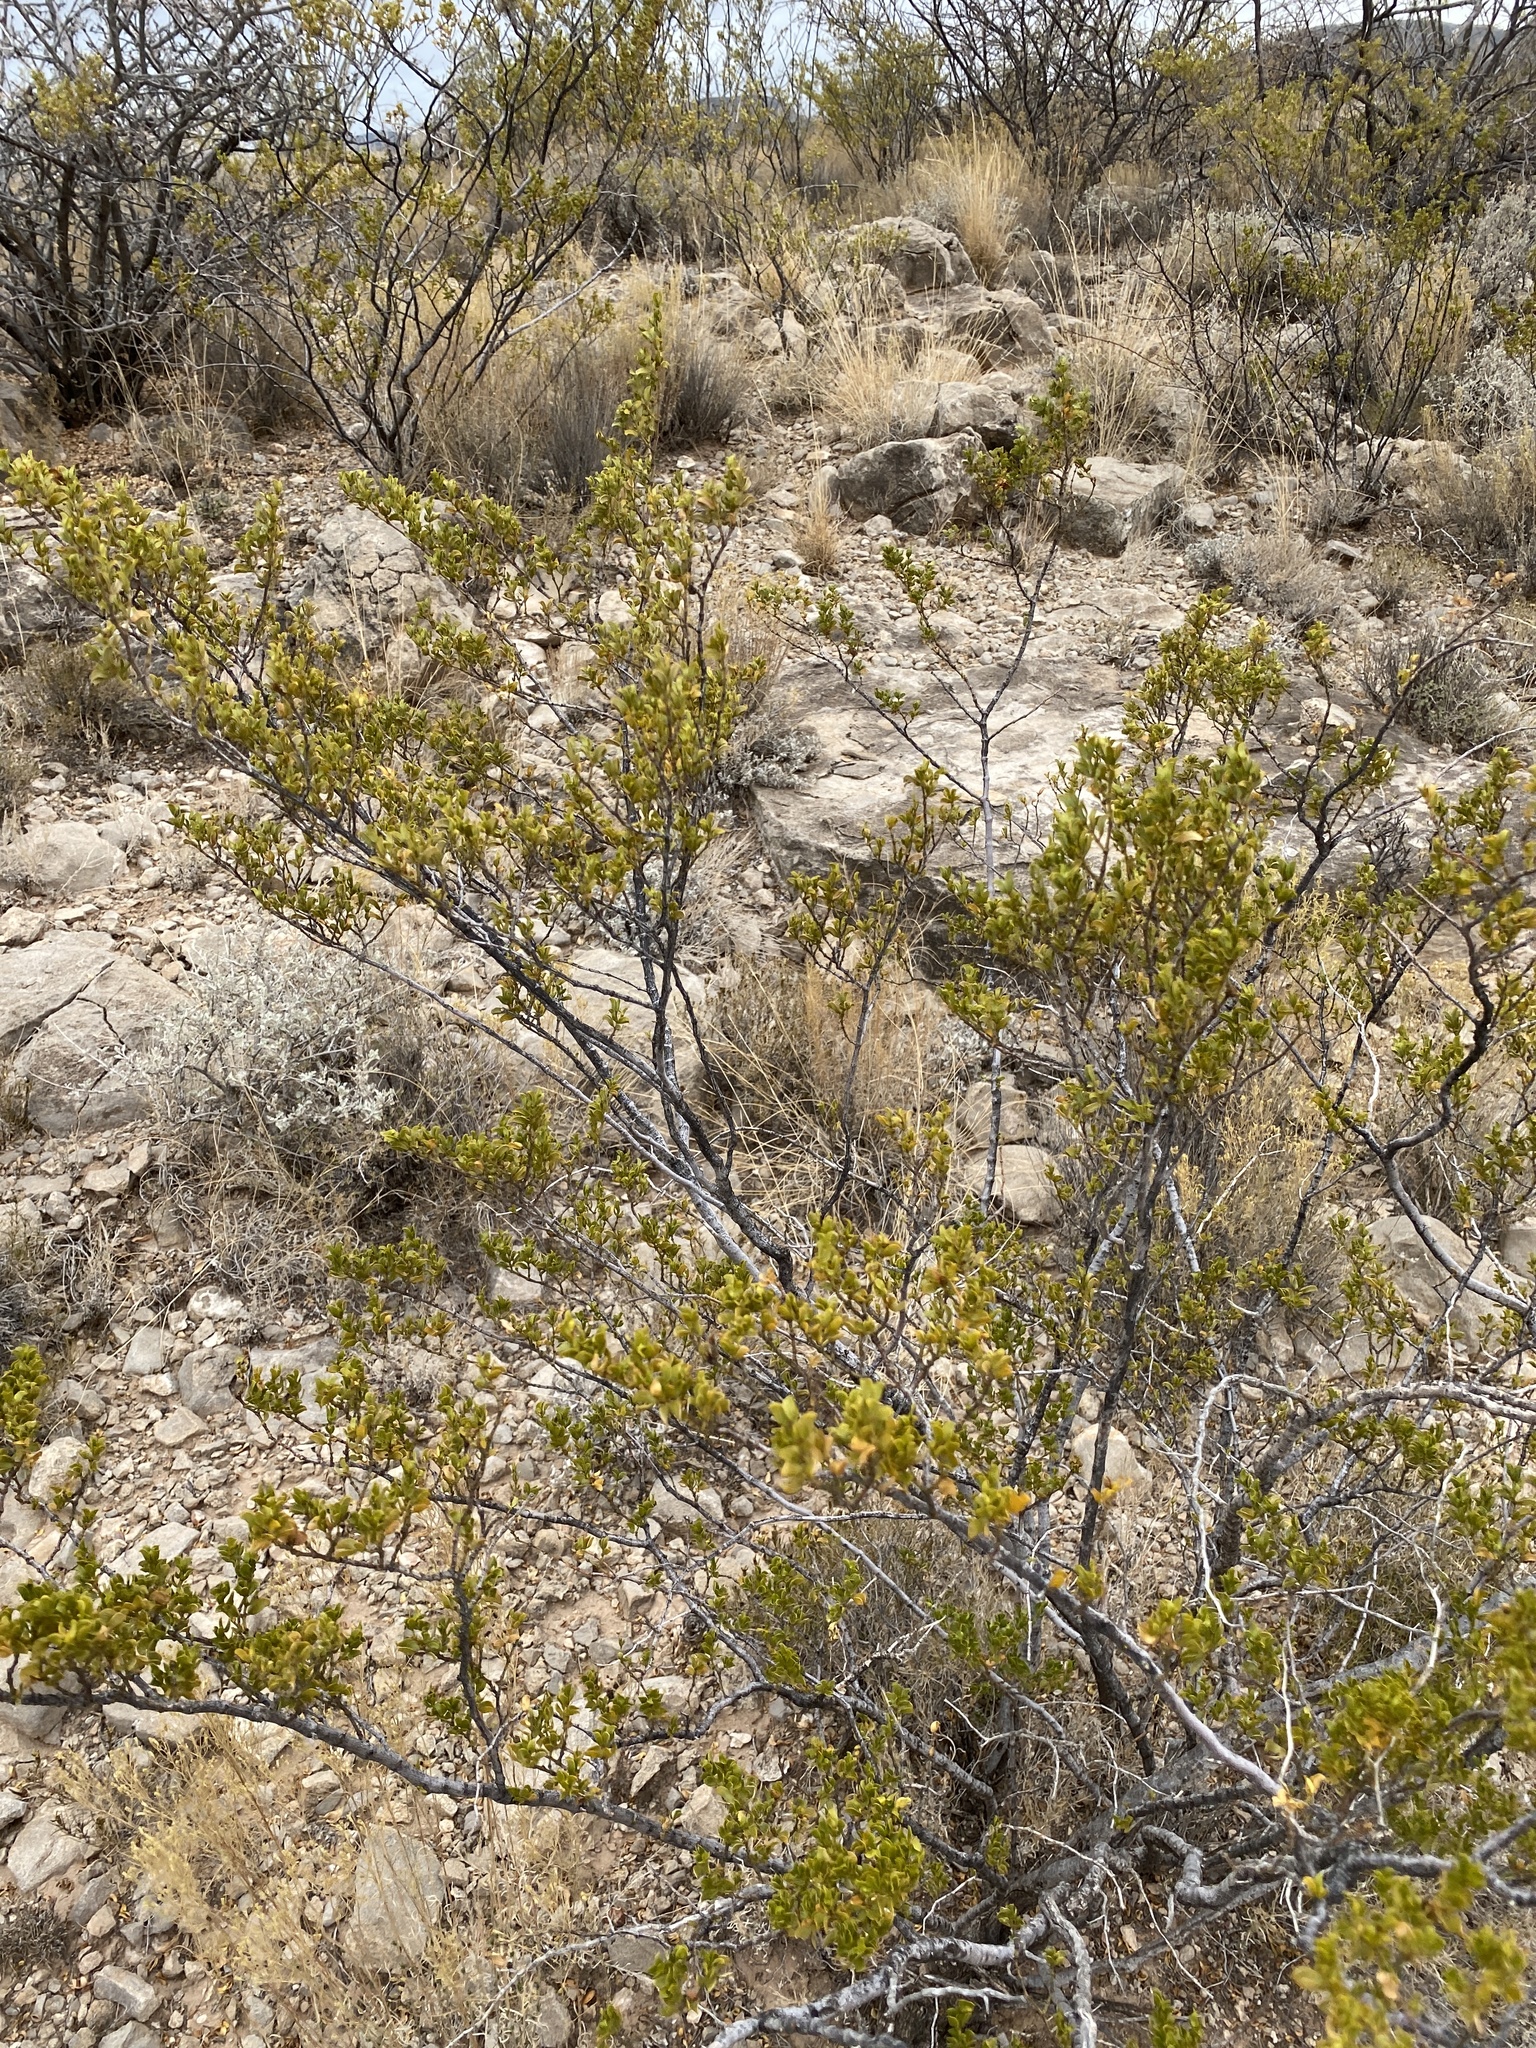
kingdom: Plantae
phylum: Tracheophyta
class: Magnoliopsida
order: Zygophyllales
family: Zygophyllaceae
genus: Larrea
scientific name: Larrea tridentata
